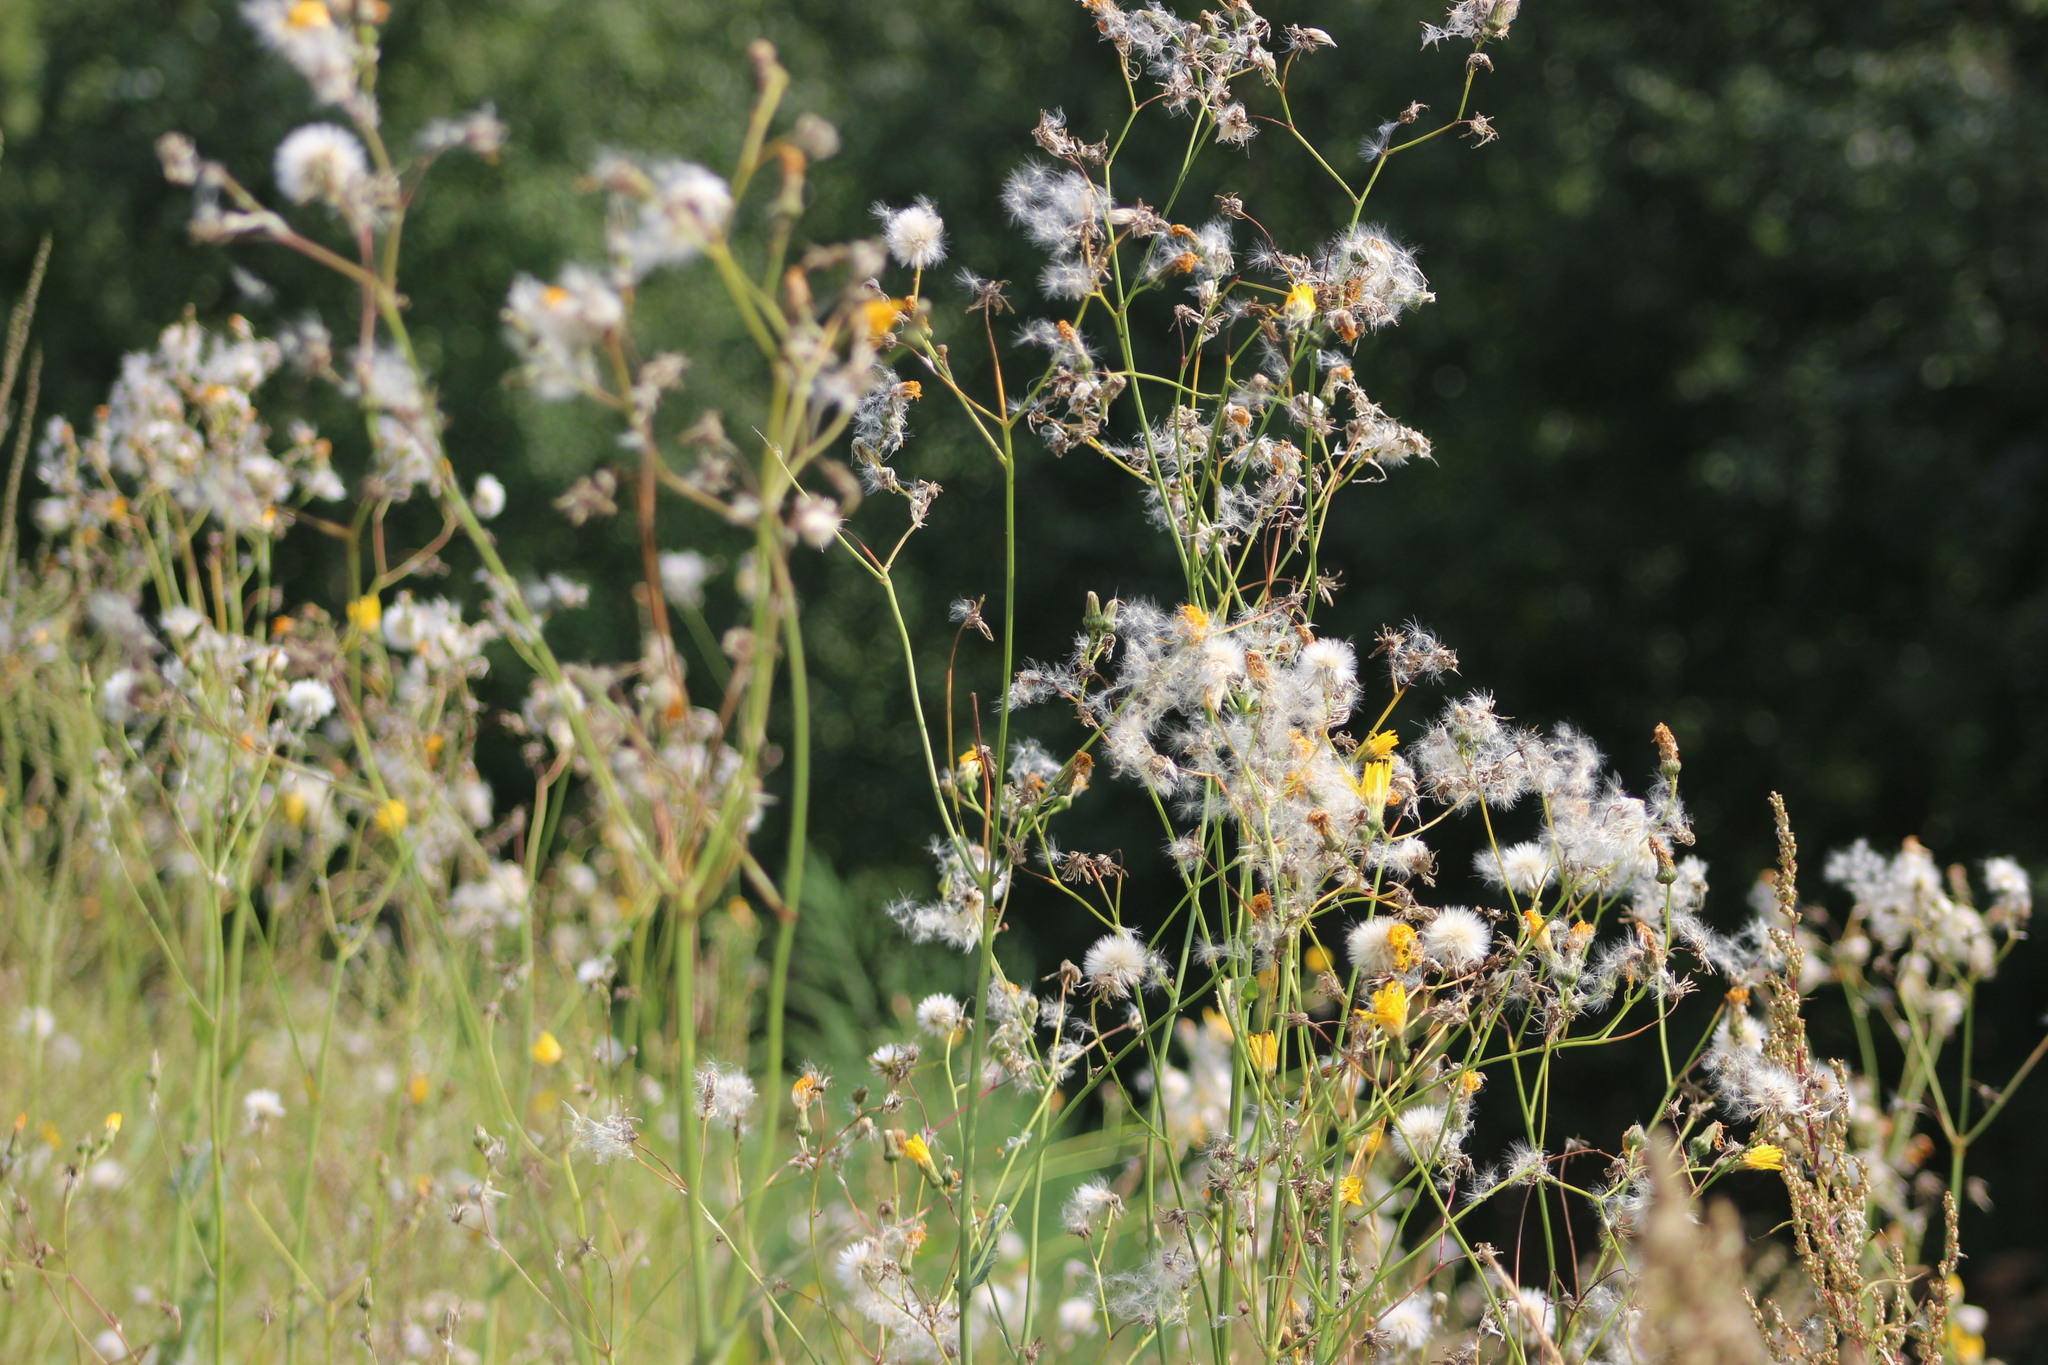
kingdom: Plantae
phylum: Tracheophyta
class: Magnoliopsida
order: Asterales
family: Asteraceae
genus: Sonchus
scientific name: Sonchus arvensis
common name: Perennial sow-thistle
